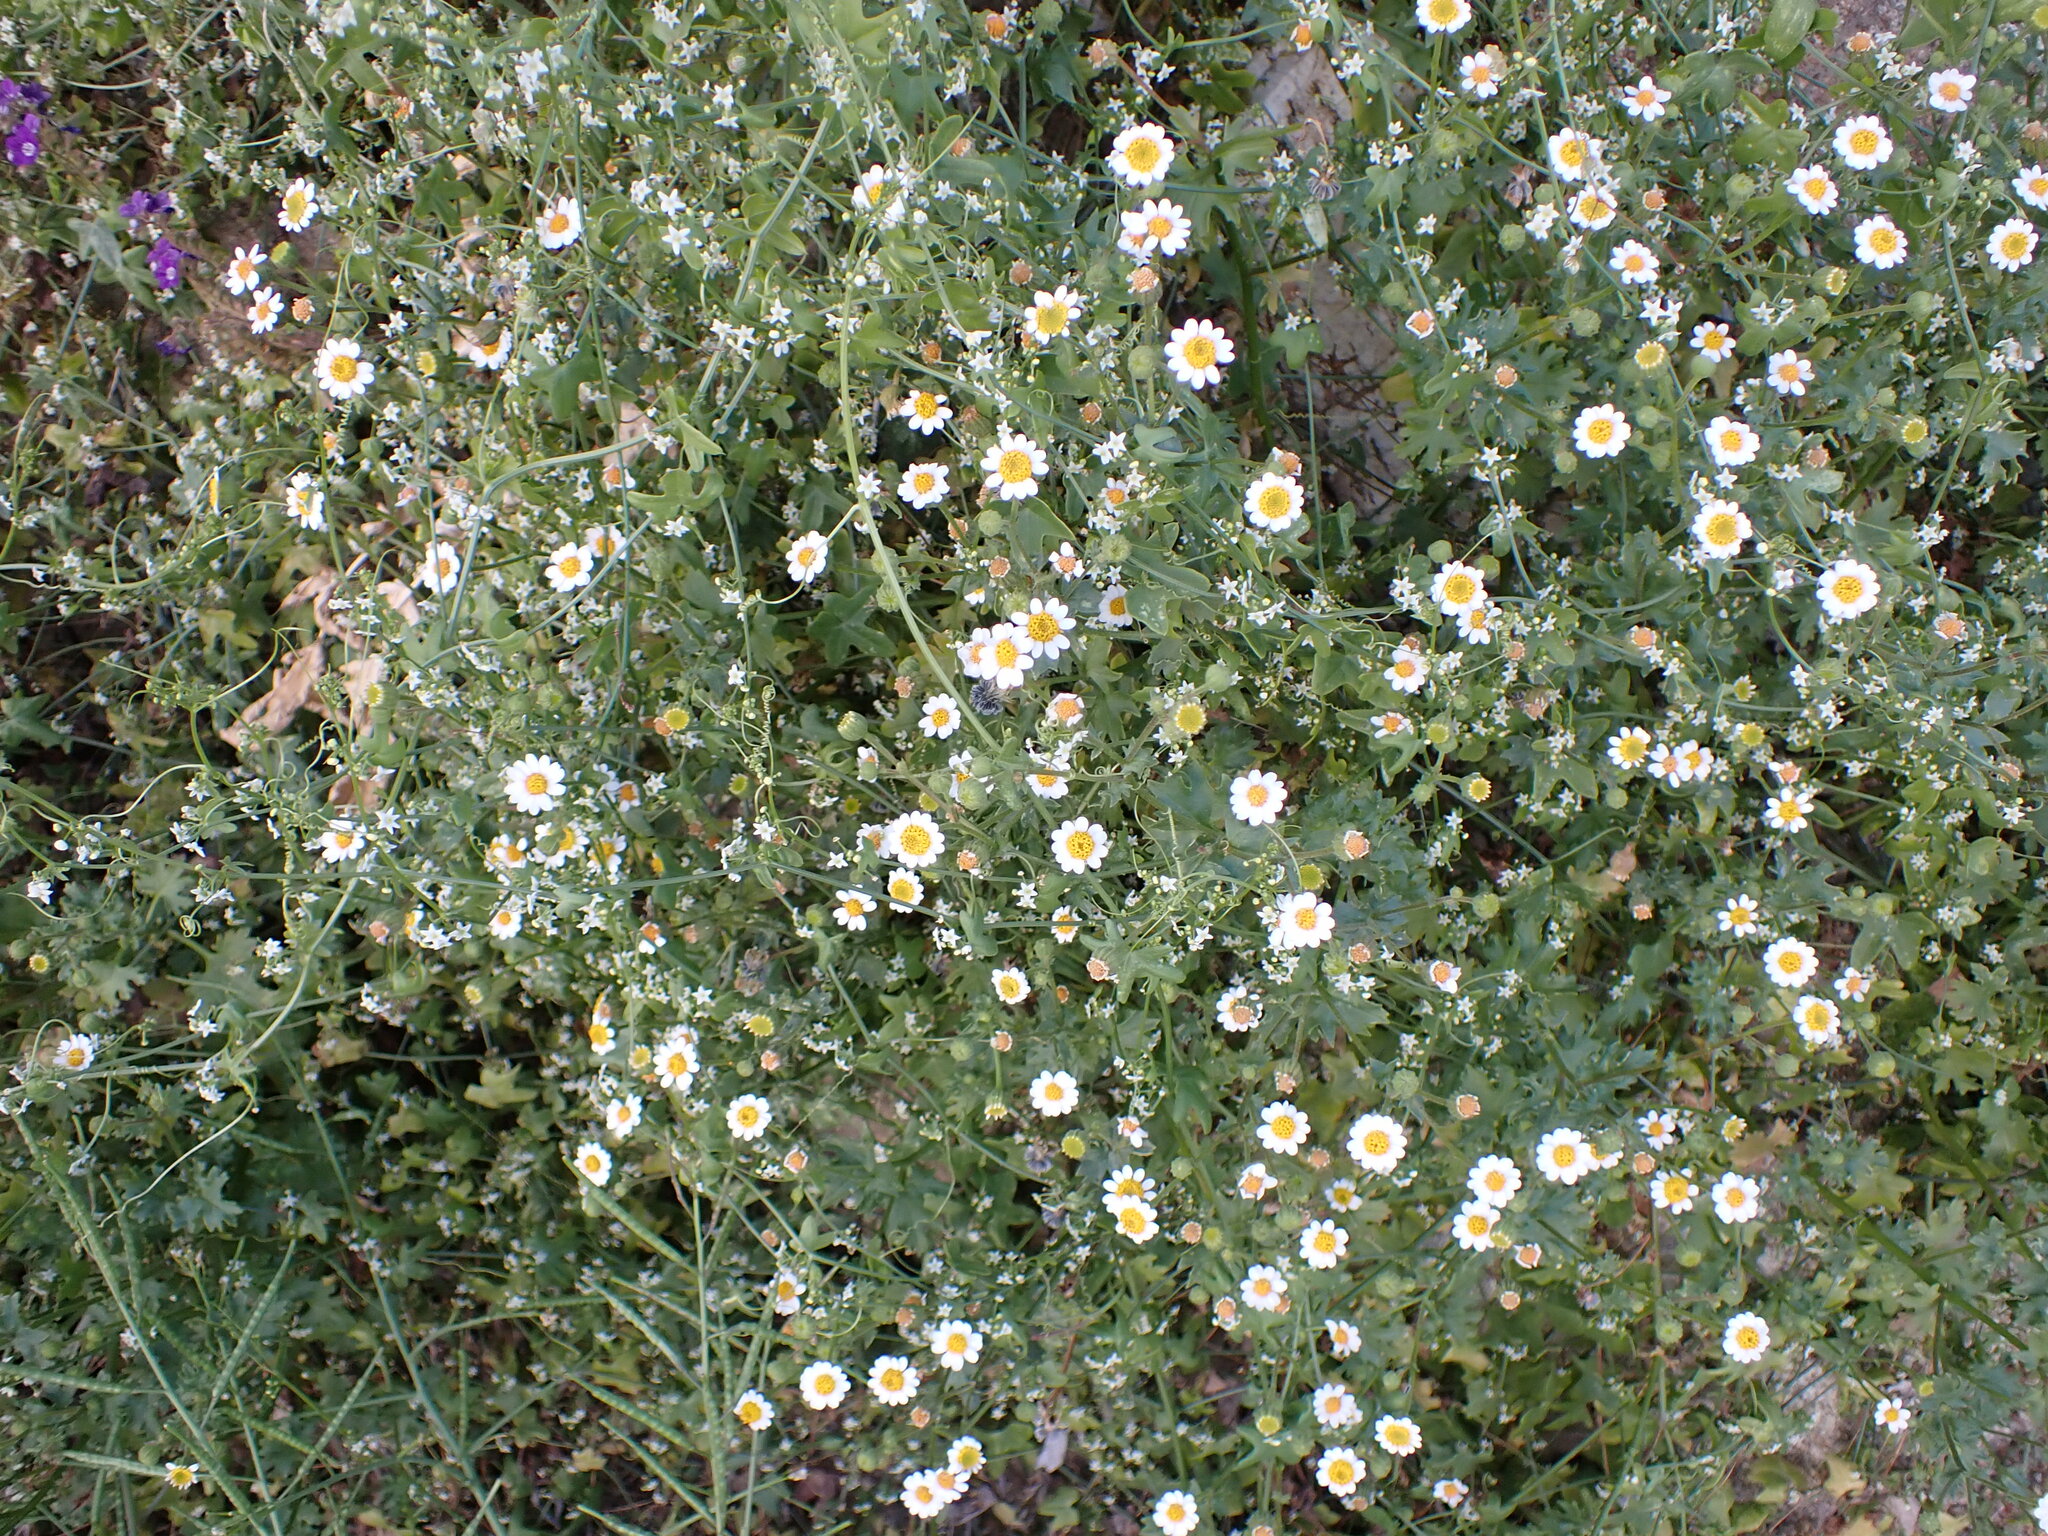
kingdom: Plantae
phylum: Tracheophyta
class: Magnoliopsida
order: Asterales
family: Asteraceae
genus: Laphamia
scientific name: Laphamia emoryi
